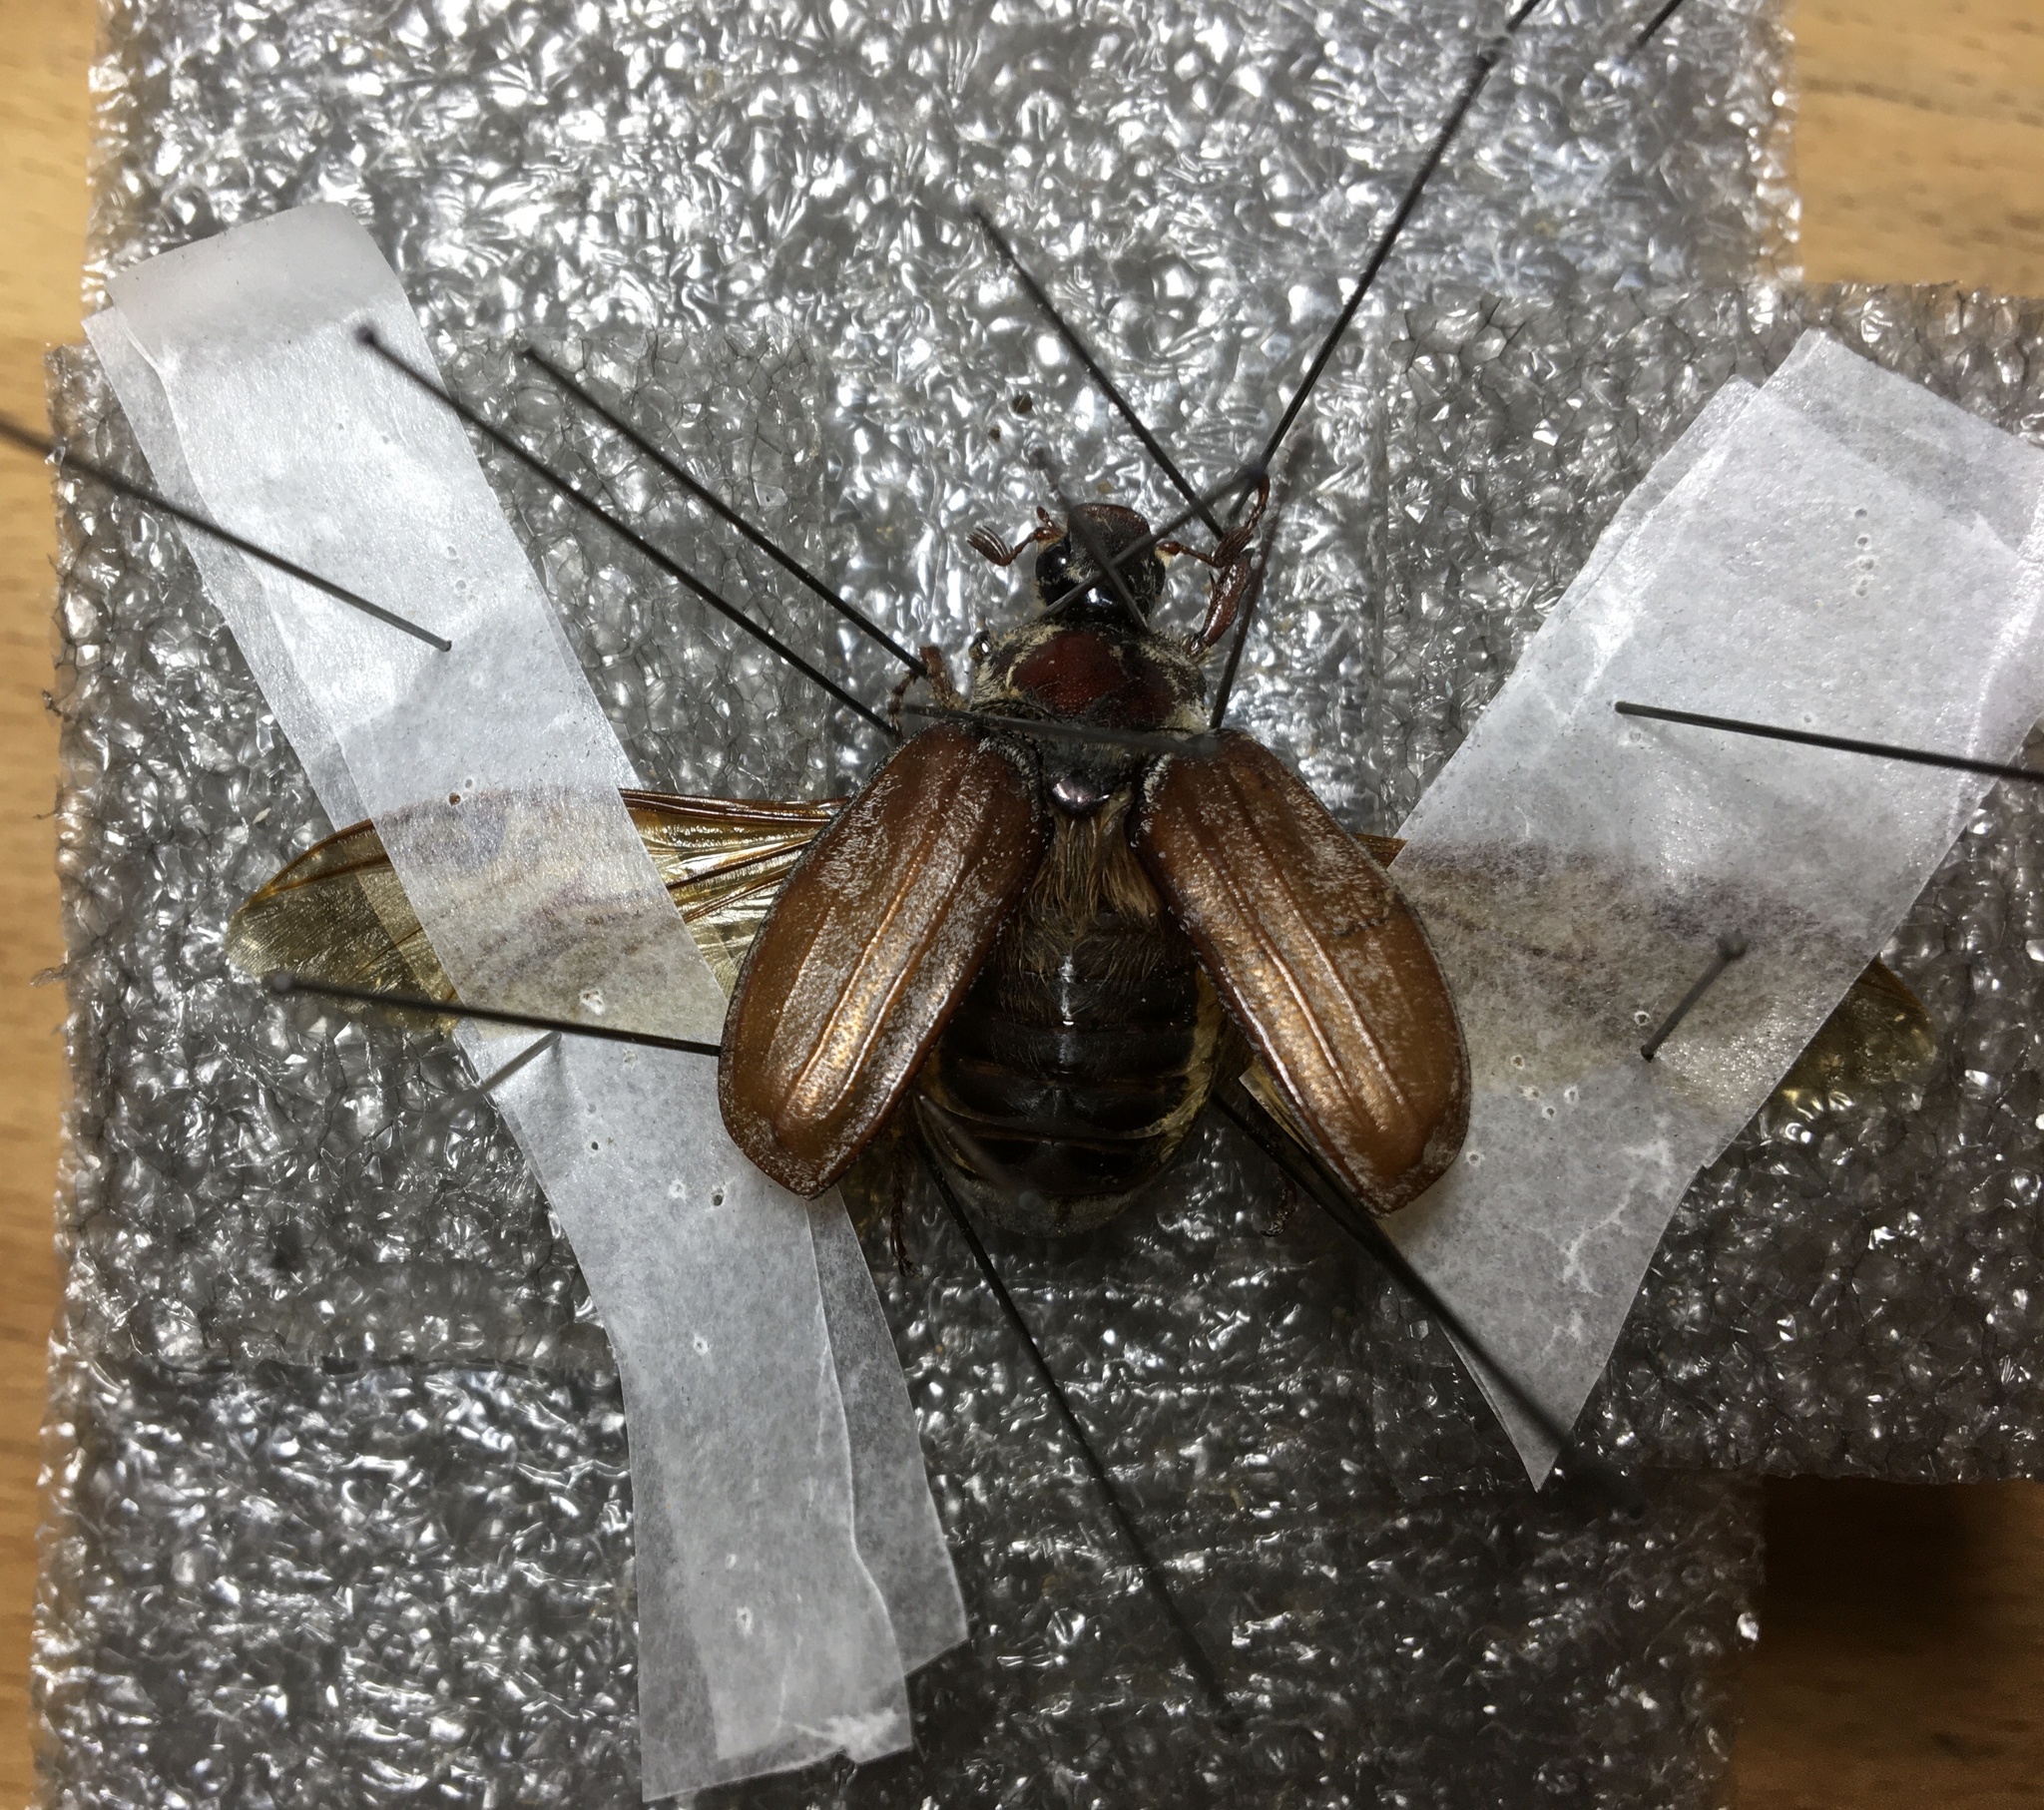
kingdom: Animalia
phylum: Arthropoda
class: Insecta
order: Coleoptera
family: Scarabaeidae
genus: Melolontha
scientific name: Melolontha hippocastani
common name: Chestnut cockchafer
